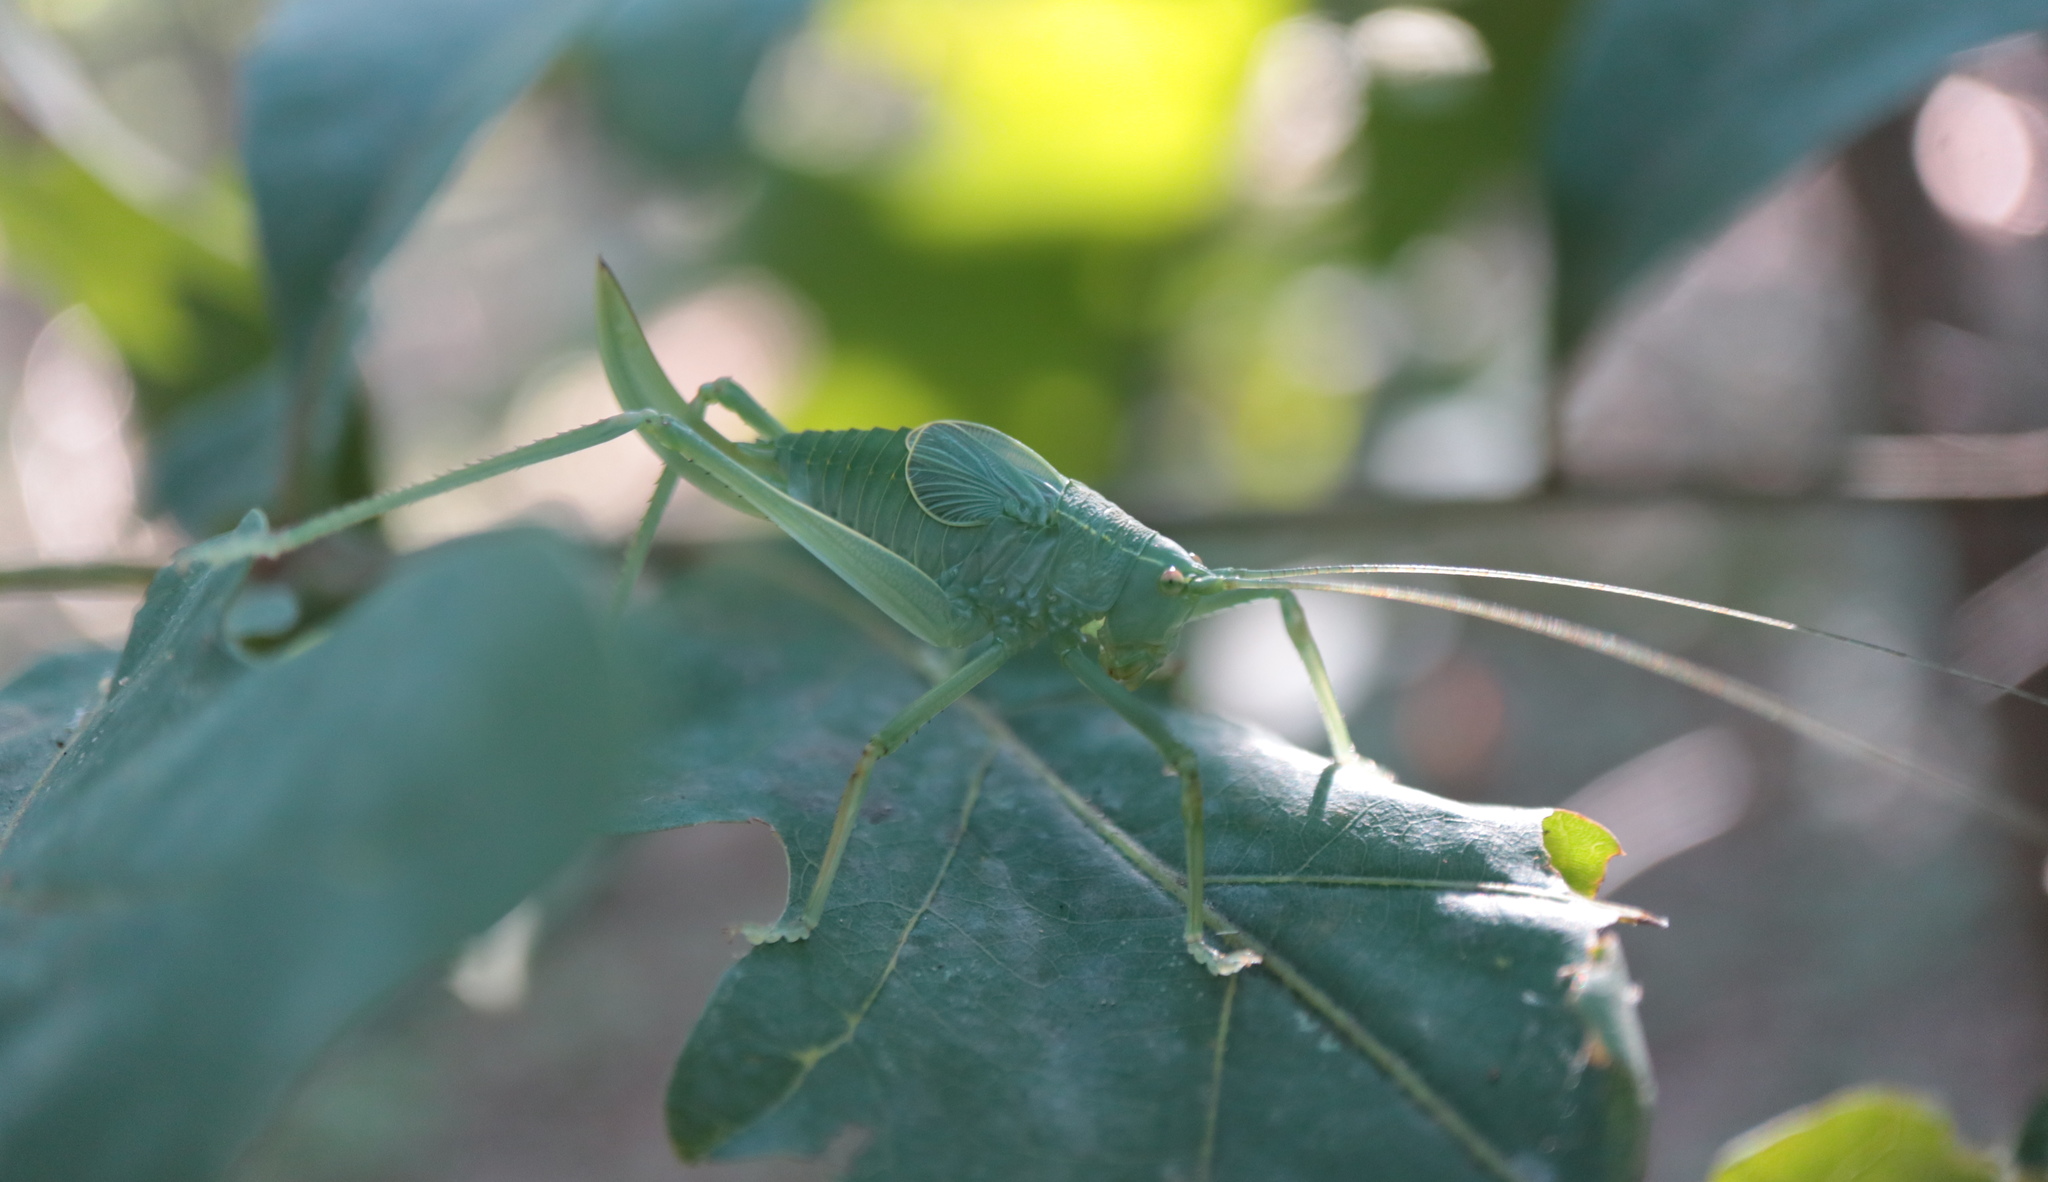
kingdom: Animalia
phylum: Arthropoda
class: Insecta
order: Orthoptera
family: Tettigoniidae
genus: Pterophylla
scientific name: Pterophylla camellifolia
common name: Common true katydid
